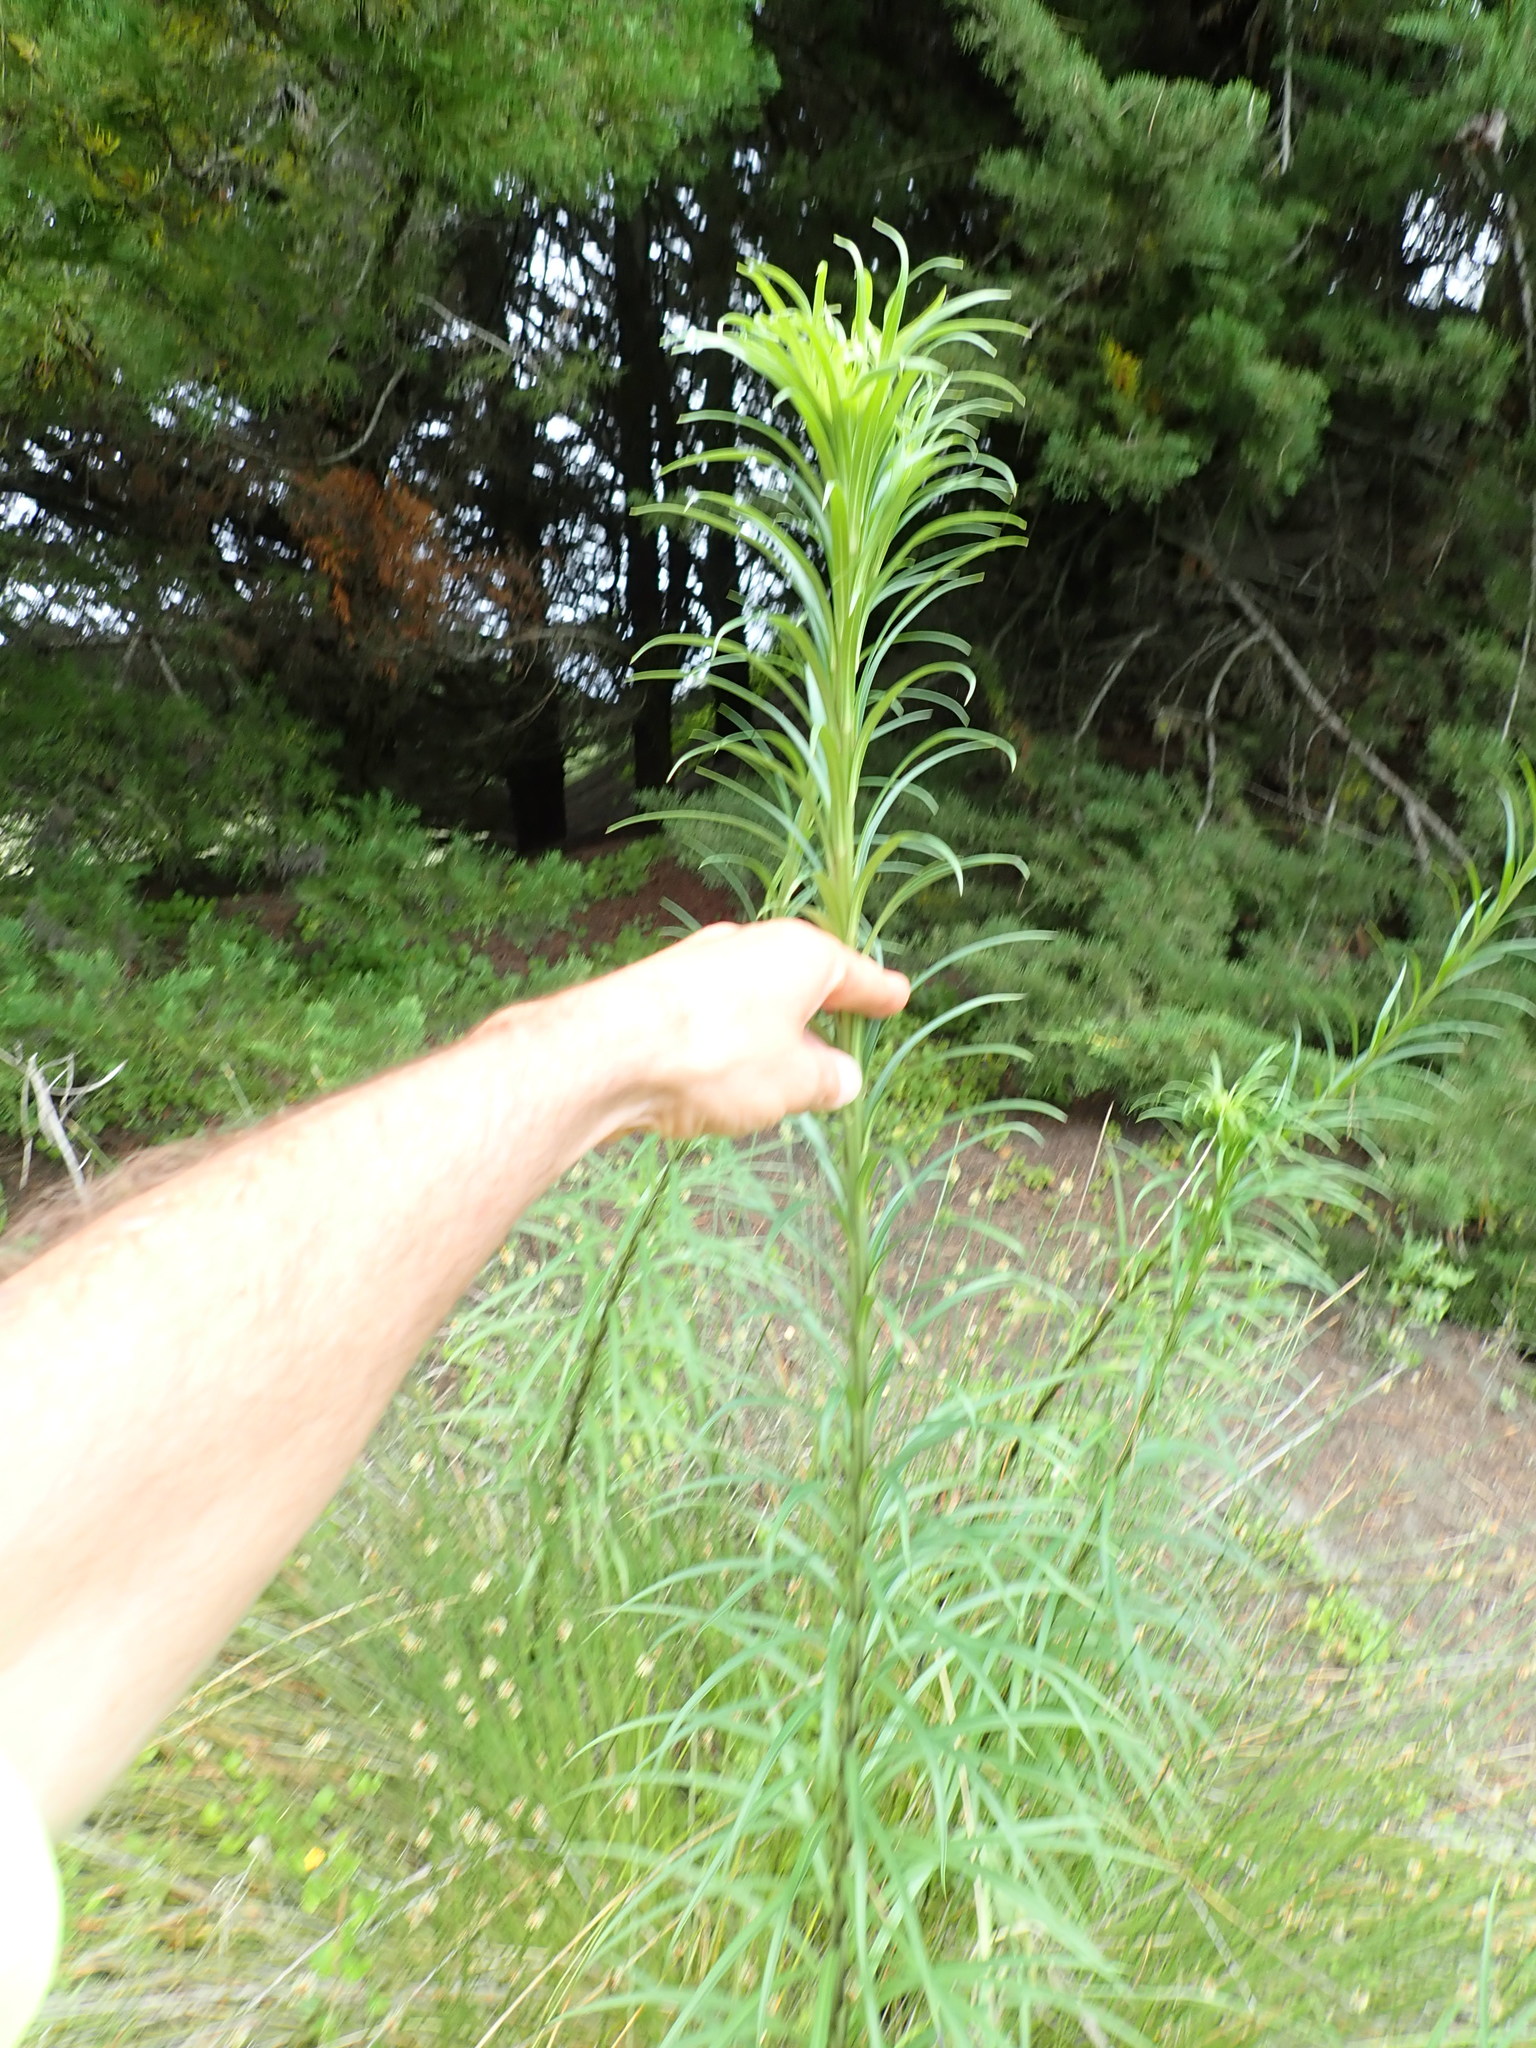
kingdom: Plantae
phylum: Tracheophyta
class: Liliopsida
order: Liliales
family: Liliaceae
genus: Lilium
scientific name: Lilium formosanum
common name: Formosa lily
